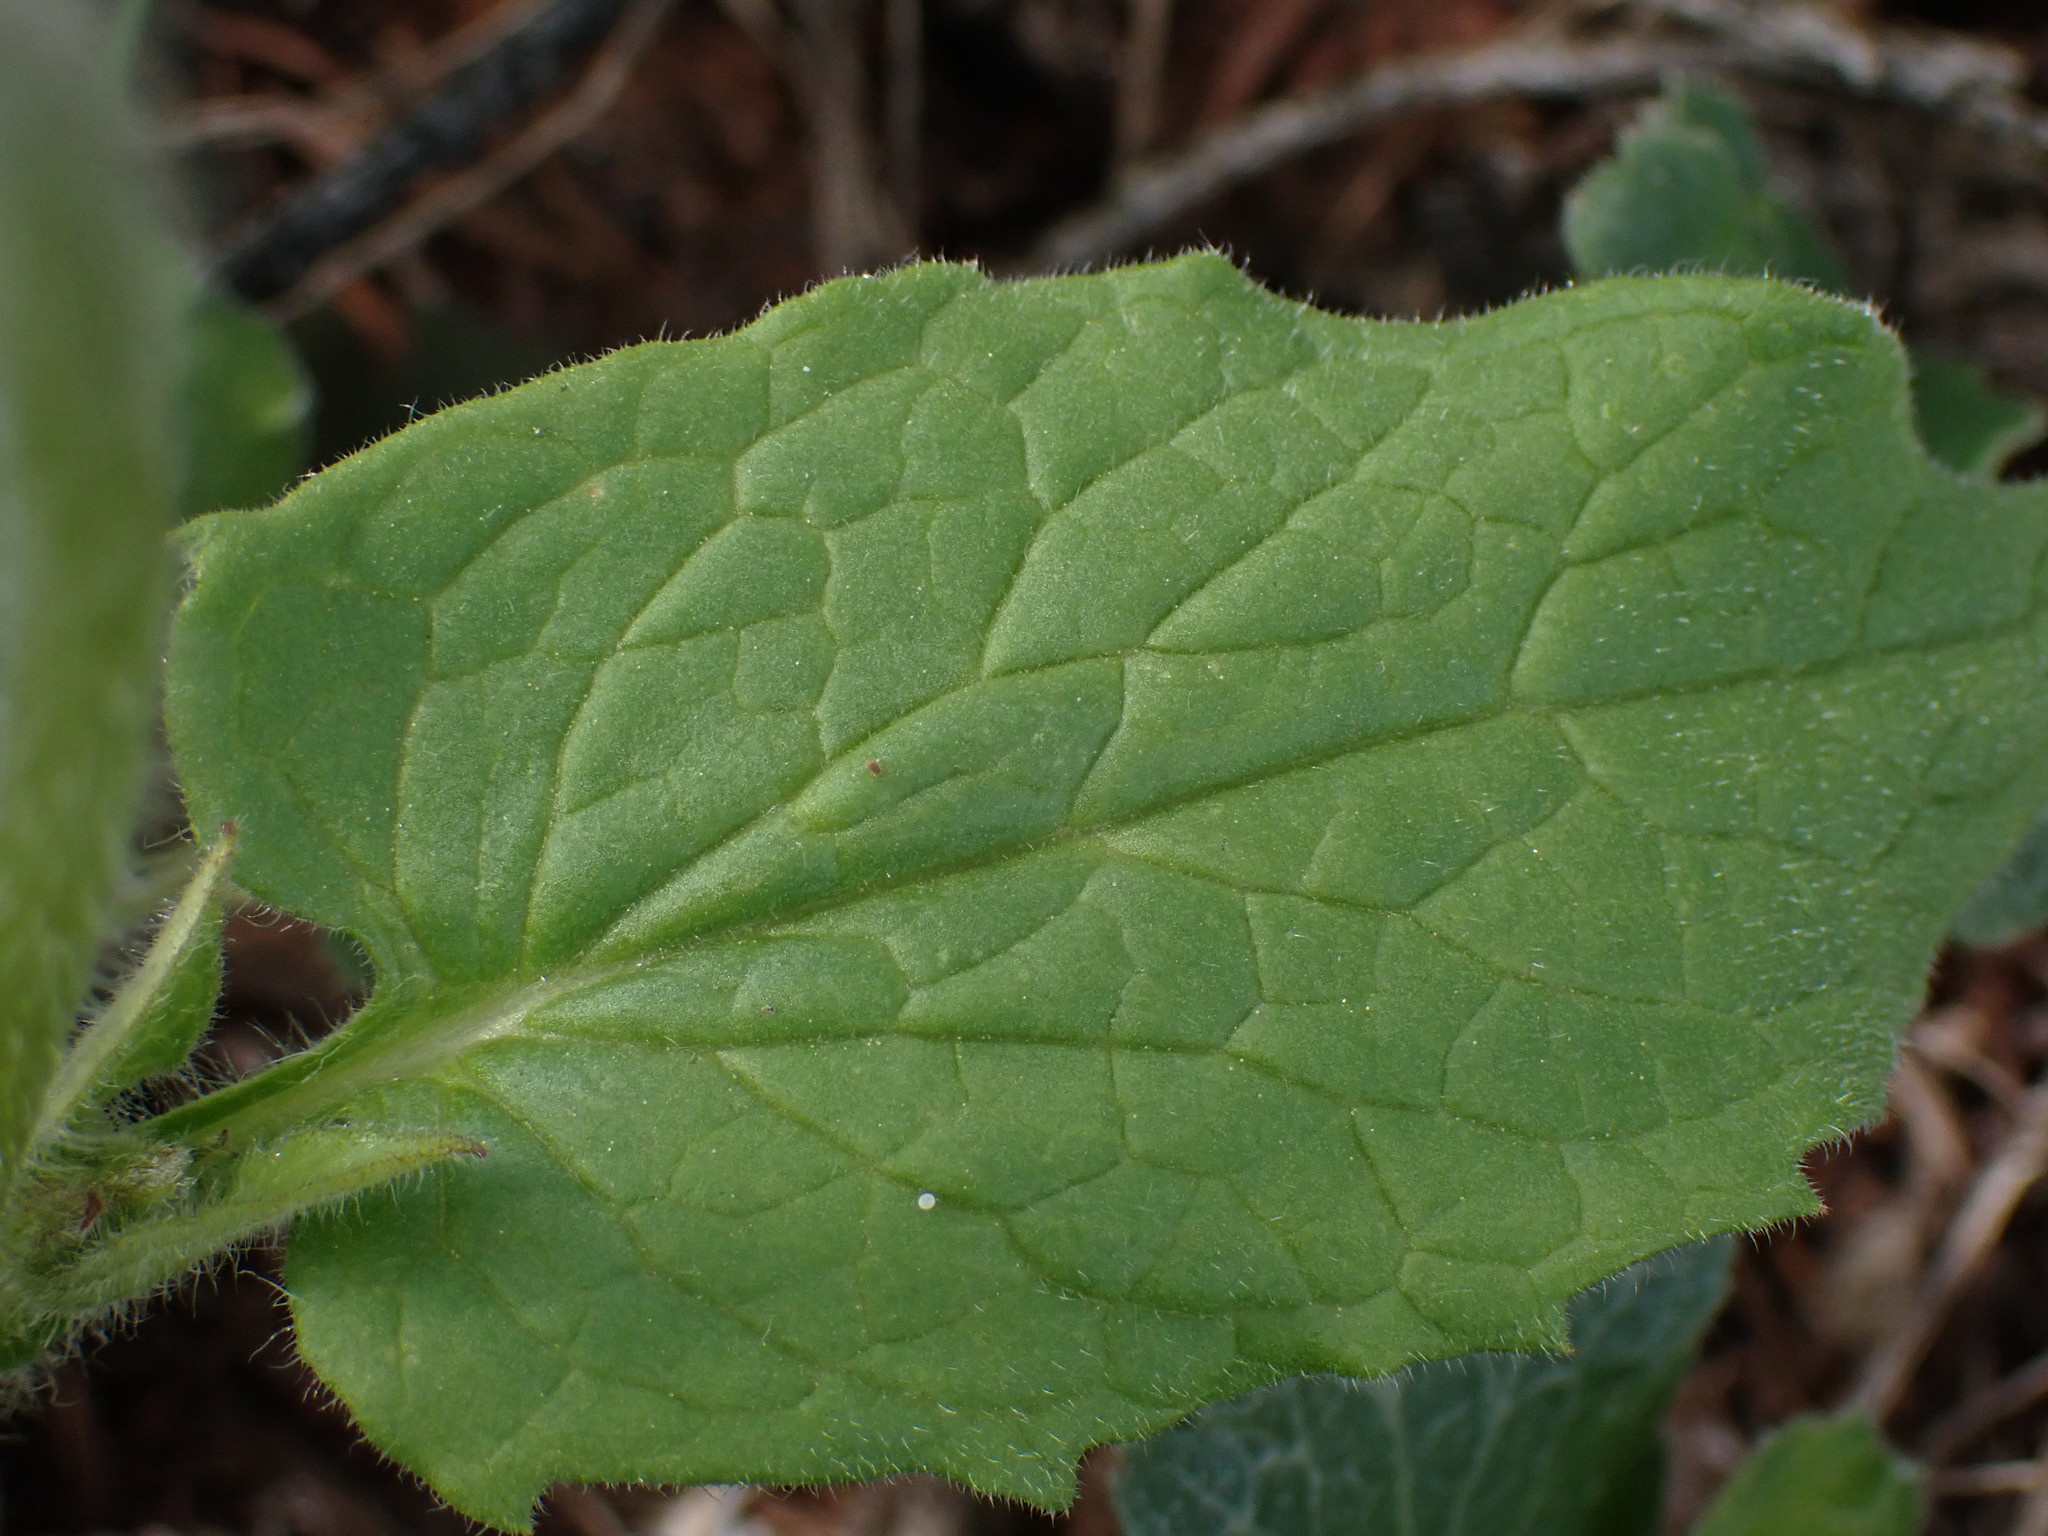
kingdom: Plantae
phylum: Tracheophyta
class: Magnoliopsida
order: Asterales
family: Asteraceae
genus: Arnica
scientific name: Arnica cordifolia
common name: Heart-leaf arnica
